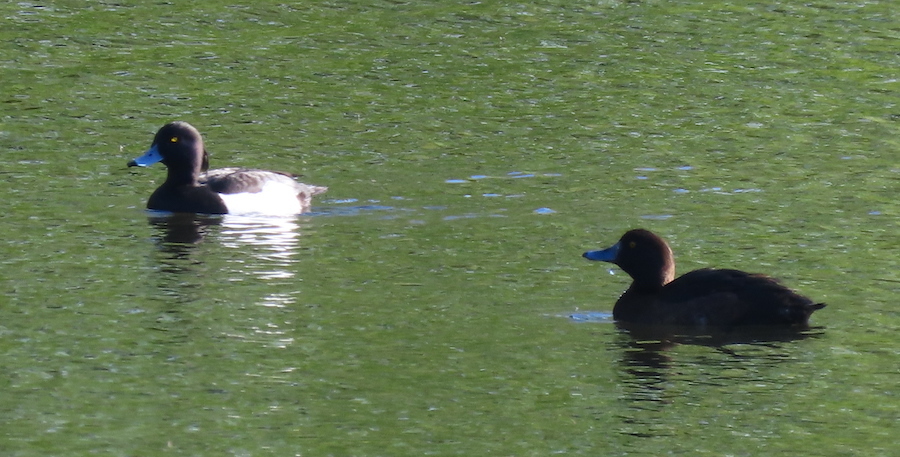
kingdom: Animalia
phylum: Chordata
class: Aves
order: Anseriformes
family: Anatidae
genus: Aythya
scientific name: Aythya fuligula
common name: Tufted duck
